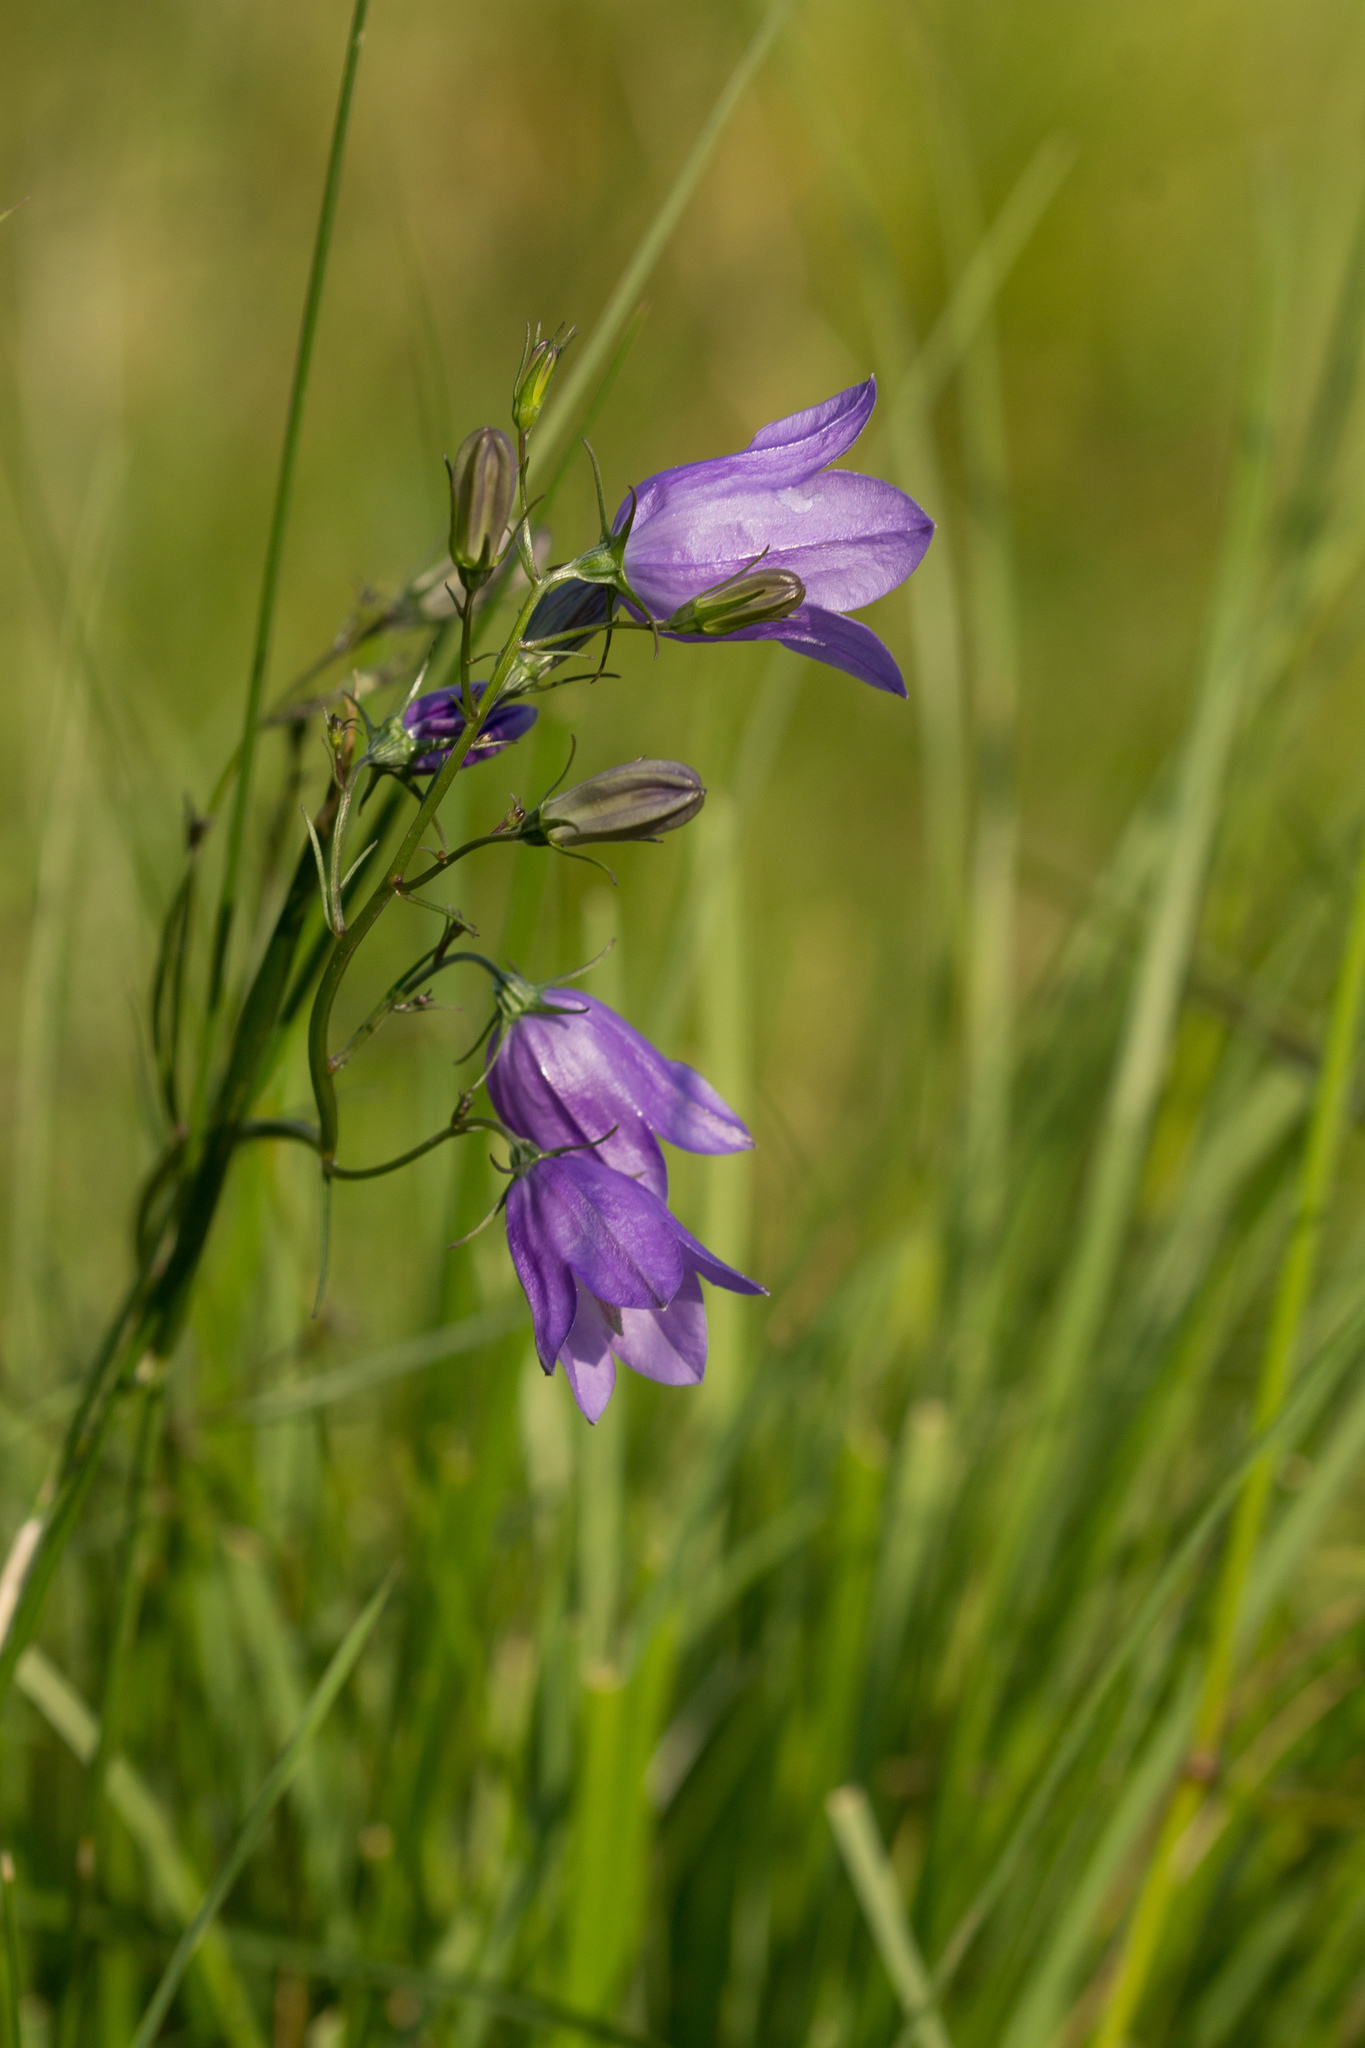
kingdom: Plantae
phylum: Tracheophyta
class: Magnoliopsida
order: Asterales
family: Campanulaceae
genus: Campanula
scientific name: Campanula rotundifolia
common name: Harebell
